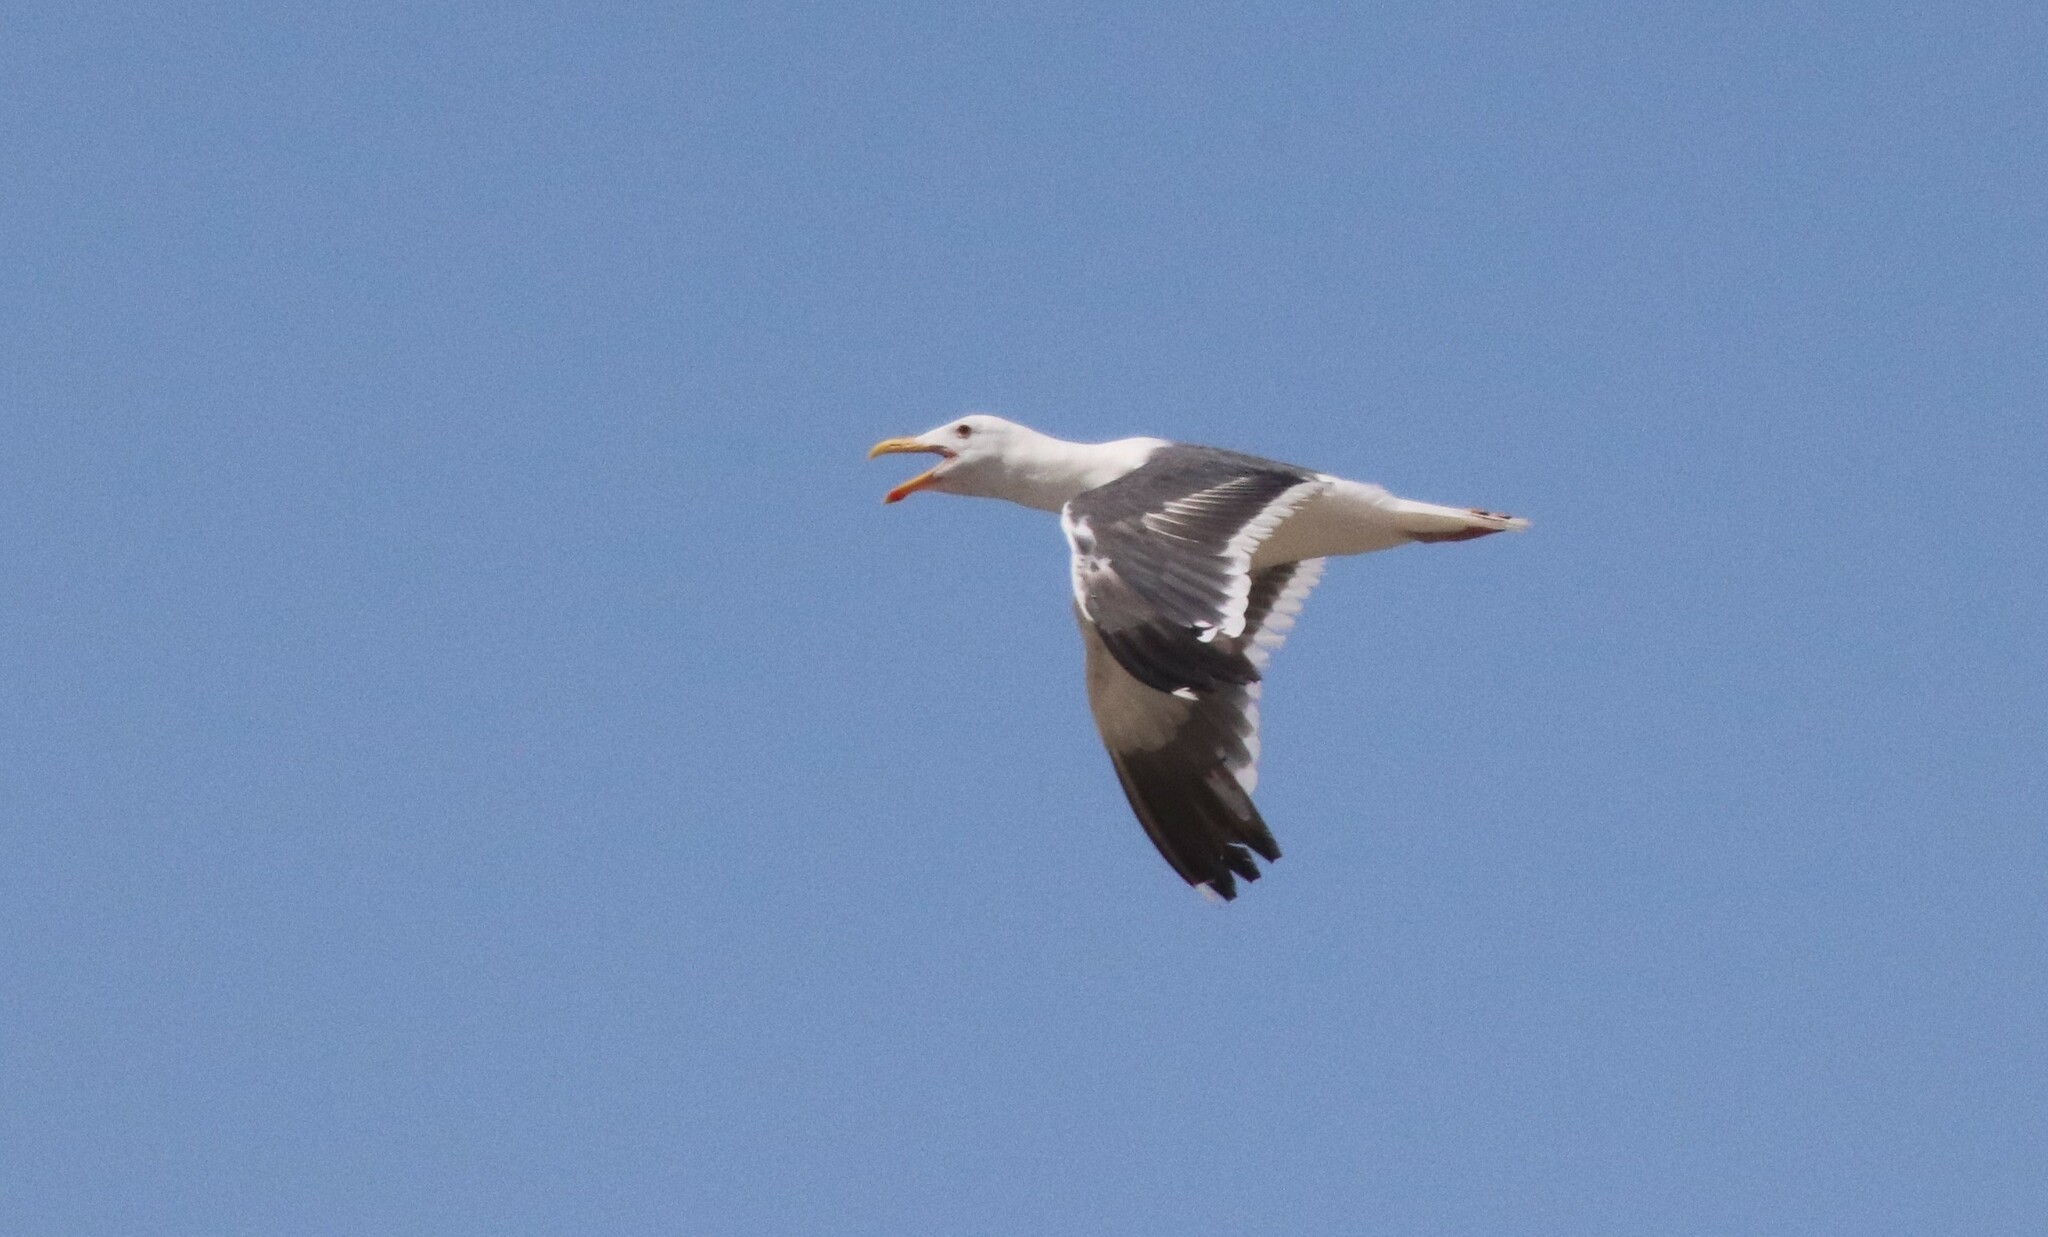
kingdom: Animalia
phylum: Chordata
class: Aves
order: Charadriiformes
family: Laridae
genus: Larus
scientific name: Larus occidentalis
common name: Western gull
